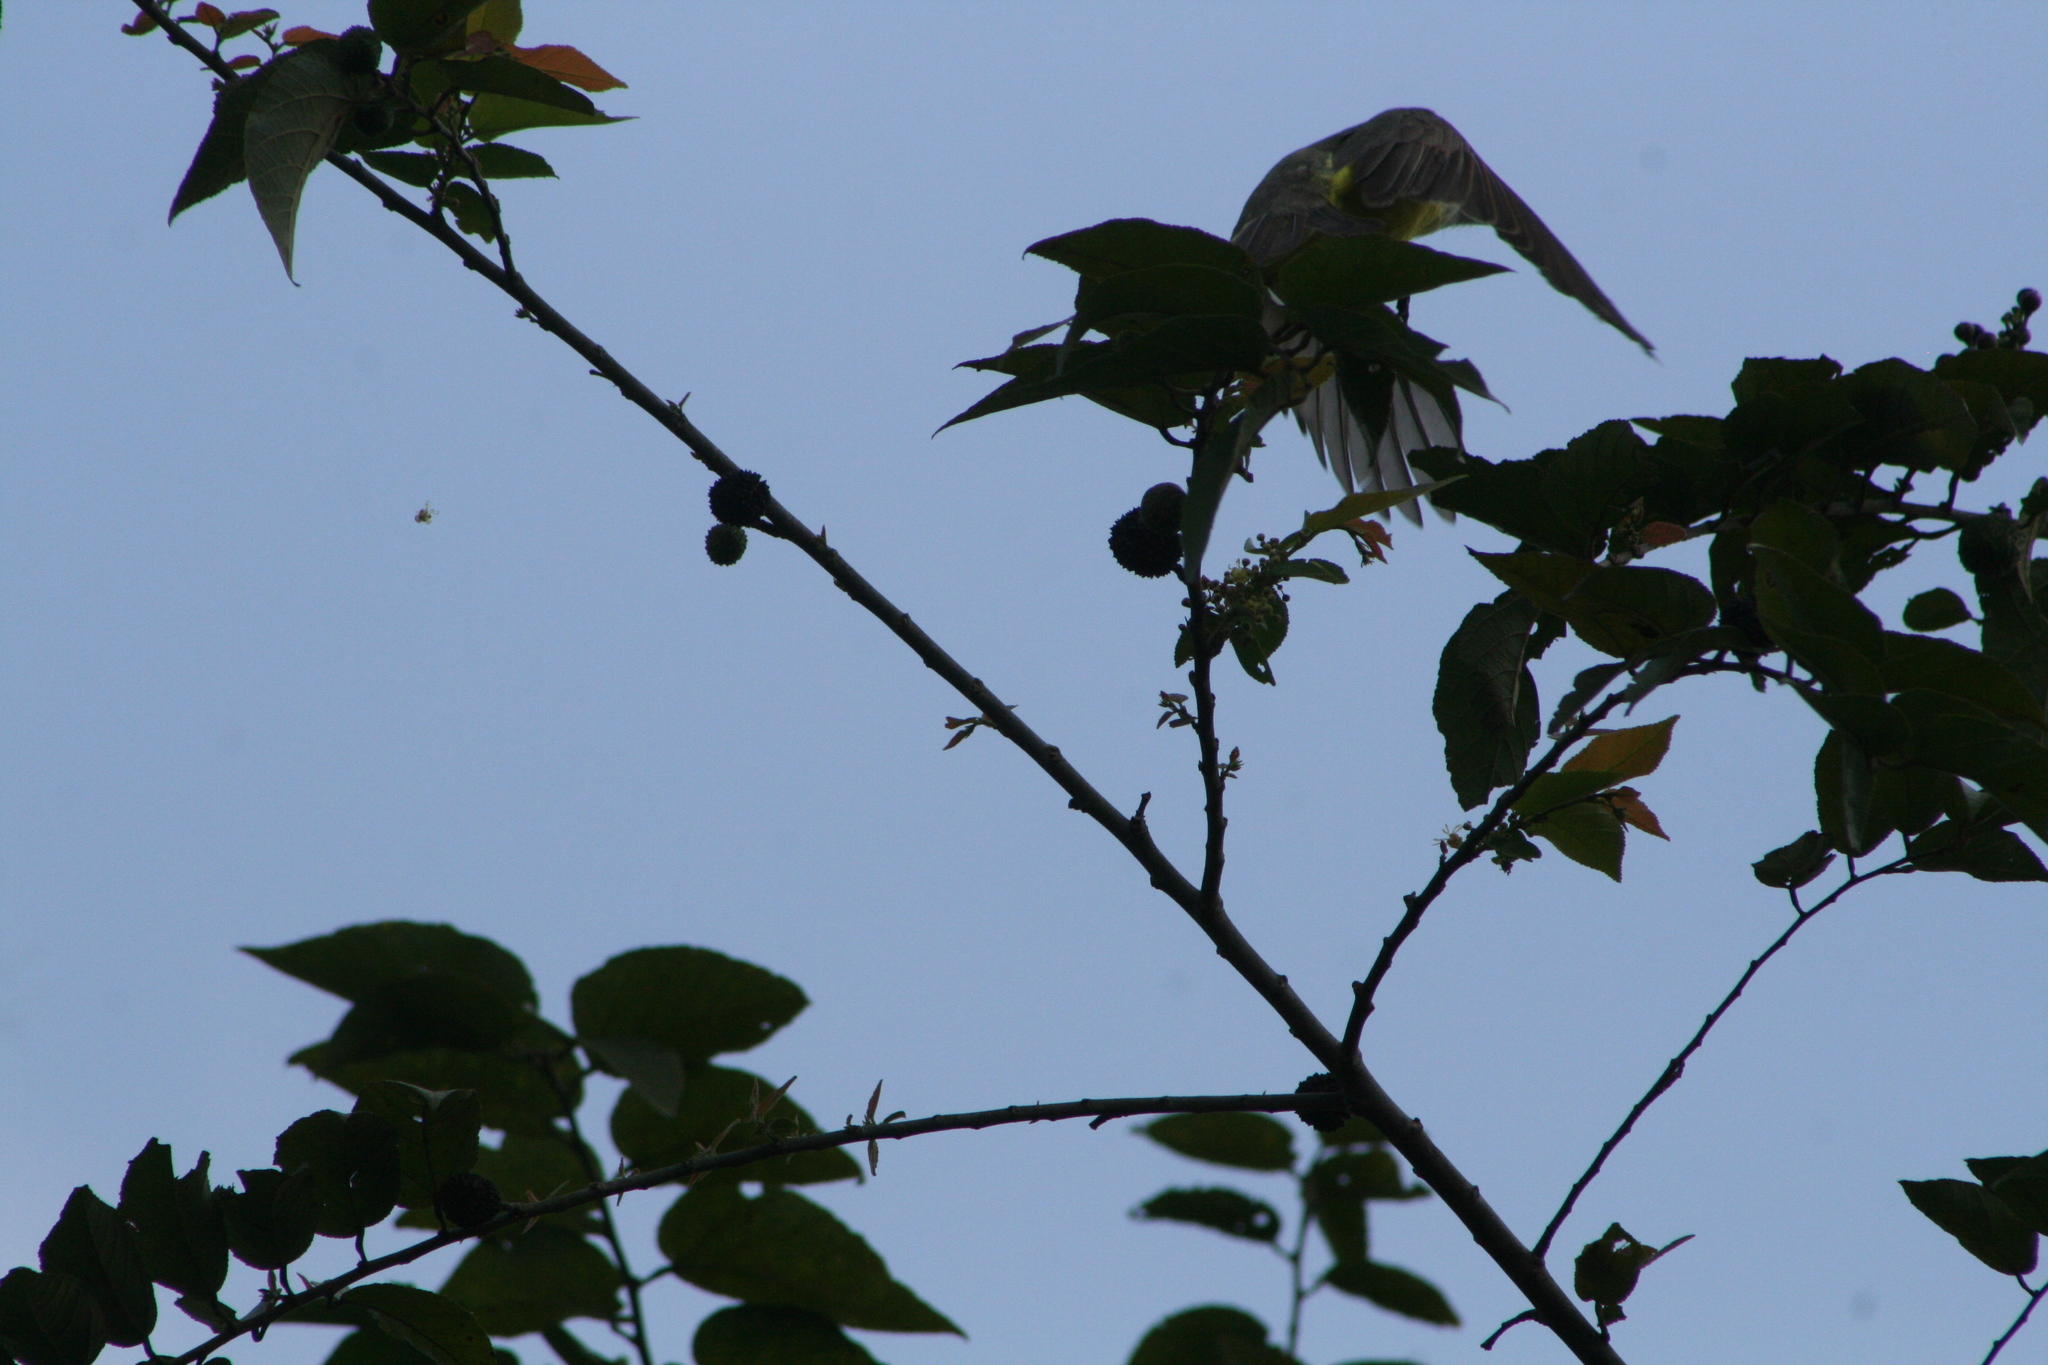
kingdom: Plantae
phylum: Tracheophyta
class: Magnoliopsida
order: Malvales
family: Malvaceae
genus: Guazuma
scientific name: Guazuma ulmifolia
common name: Bastard-cedar
